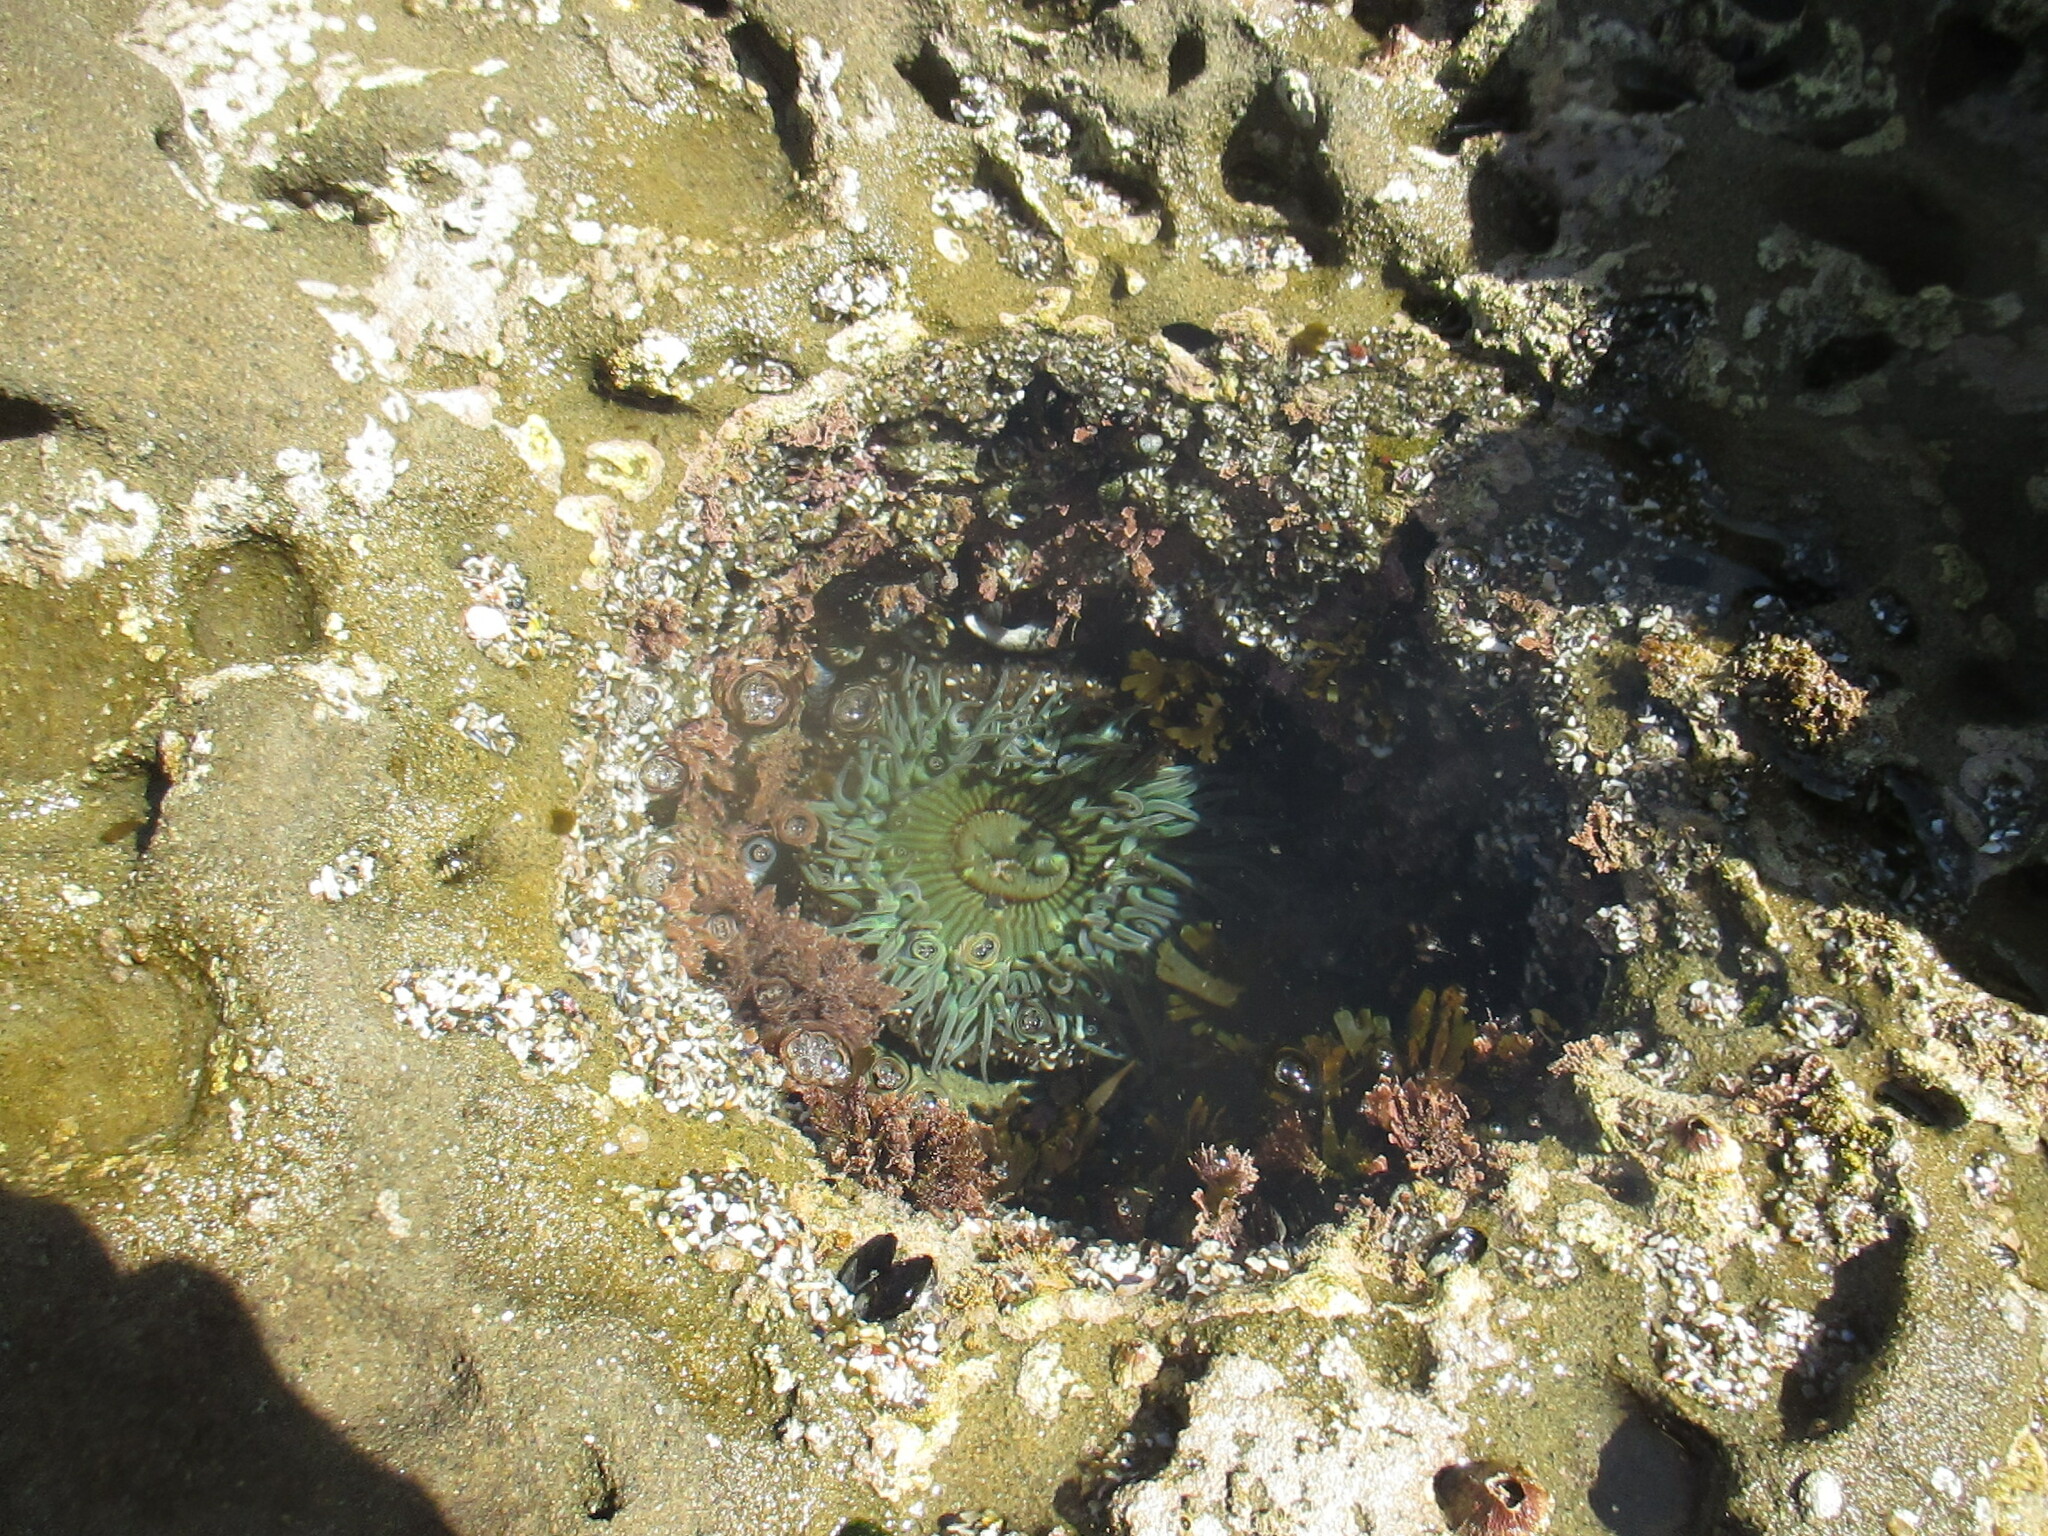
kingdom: Animalia
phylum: Cnidaria
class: Anthozoa
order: Actiniaria
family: Actiniidae
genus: Anthopleura
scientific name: Anthopleura sola
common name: Sun anemone
